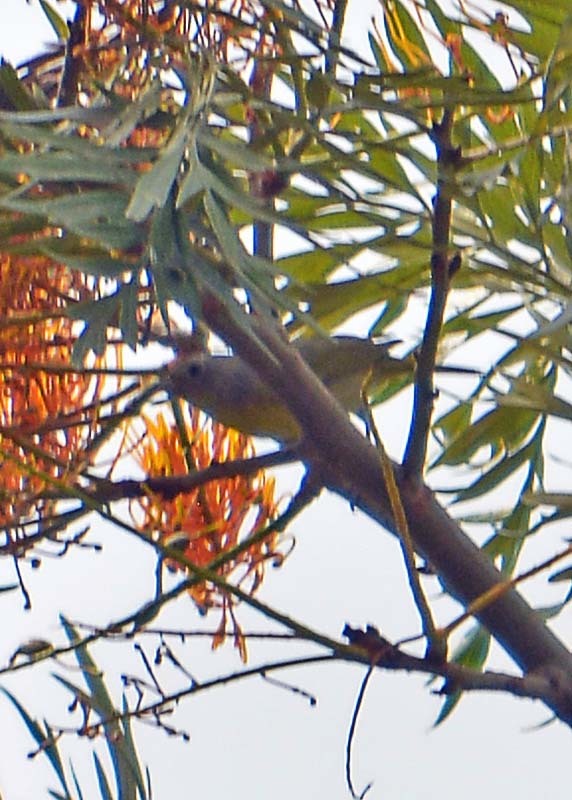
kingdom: Animalia
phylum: Chordata
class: Aves
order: Passeriformes
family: Parulidae
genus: Leiothlypis
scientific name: Leiothlypis ruficapilla
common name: Nashville warbler
